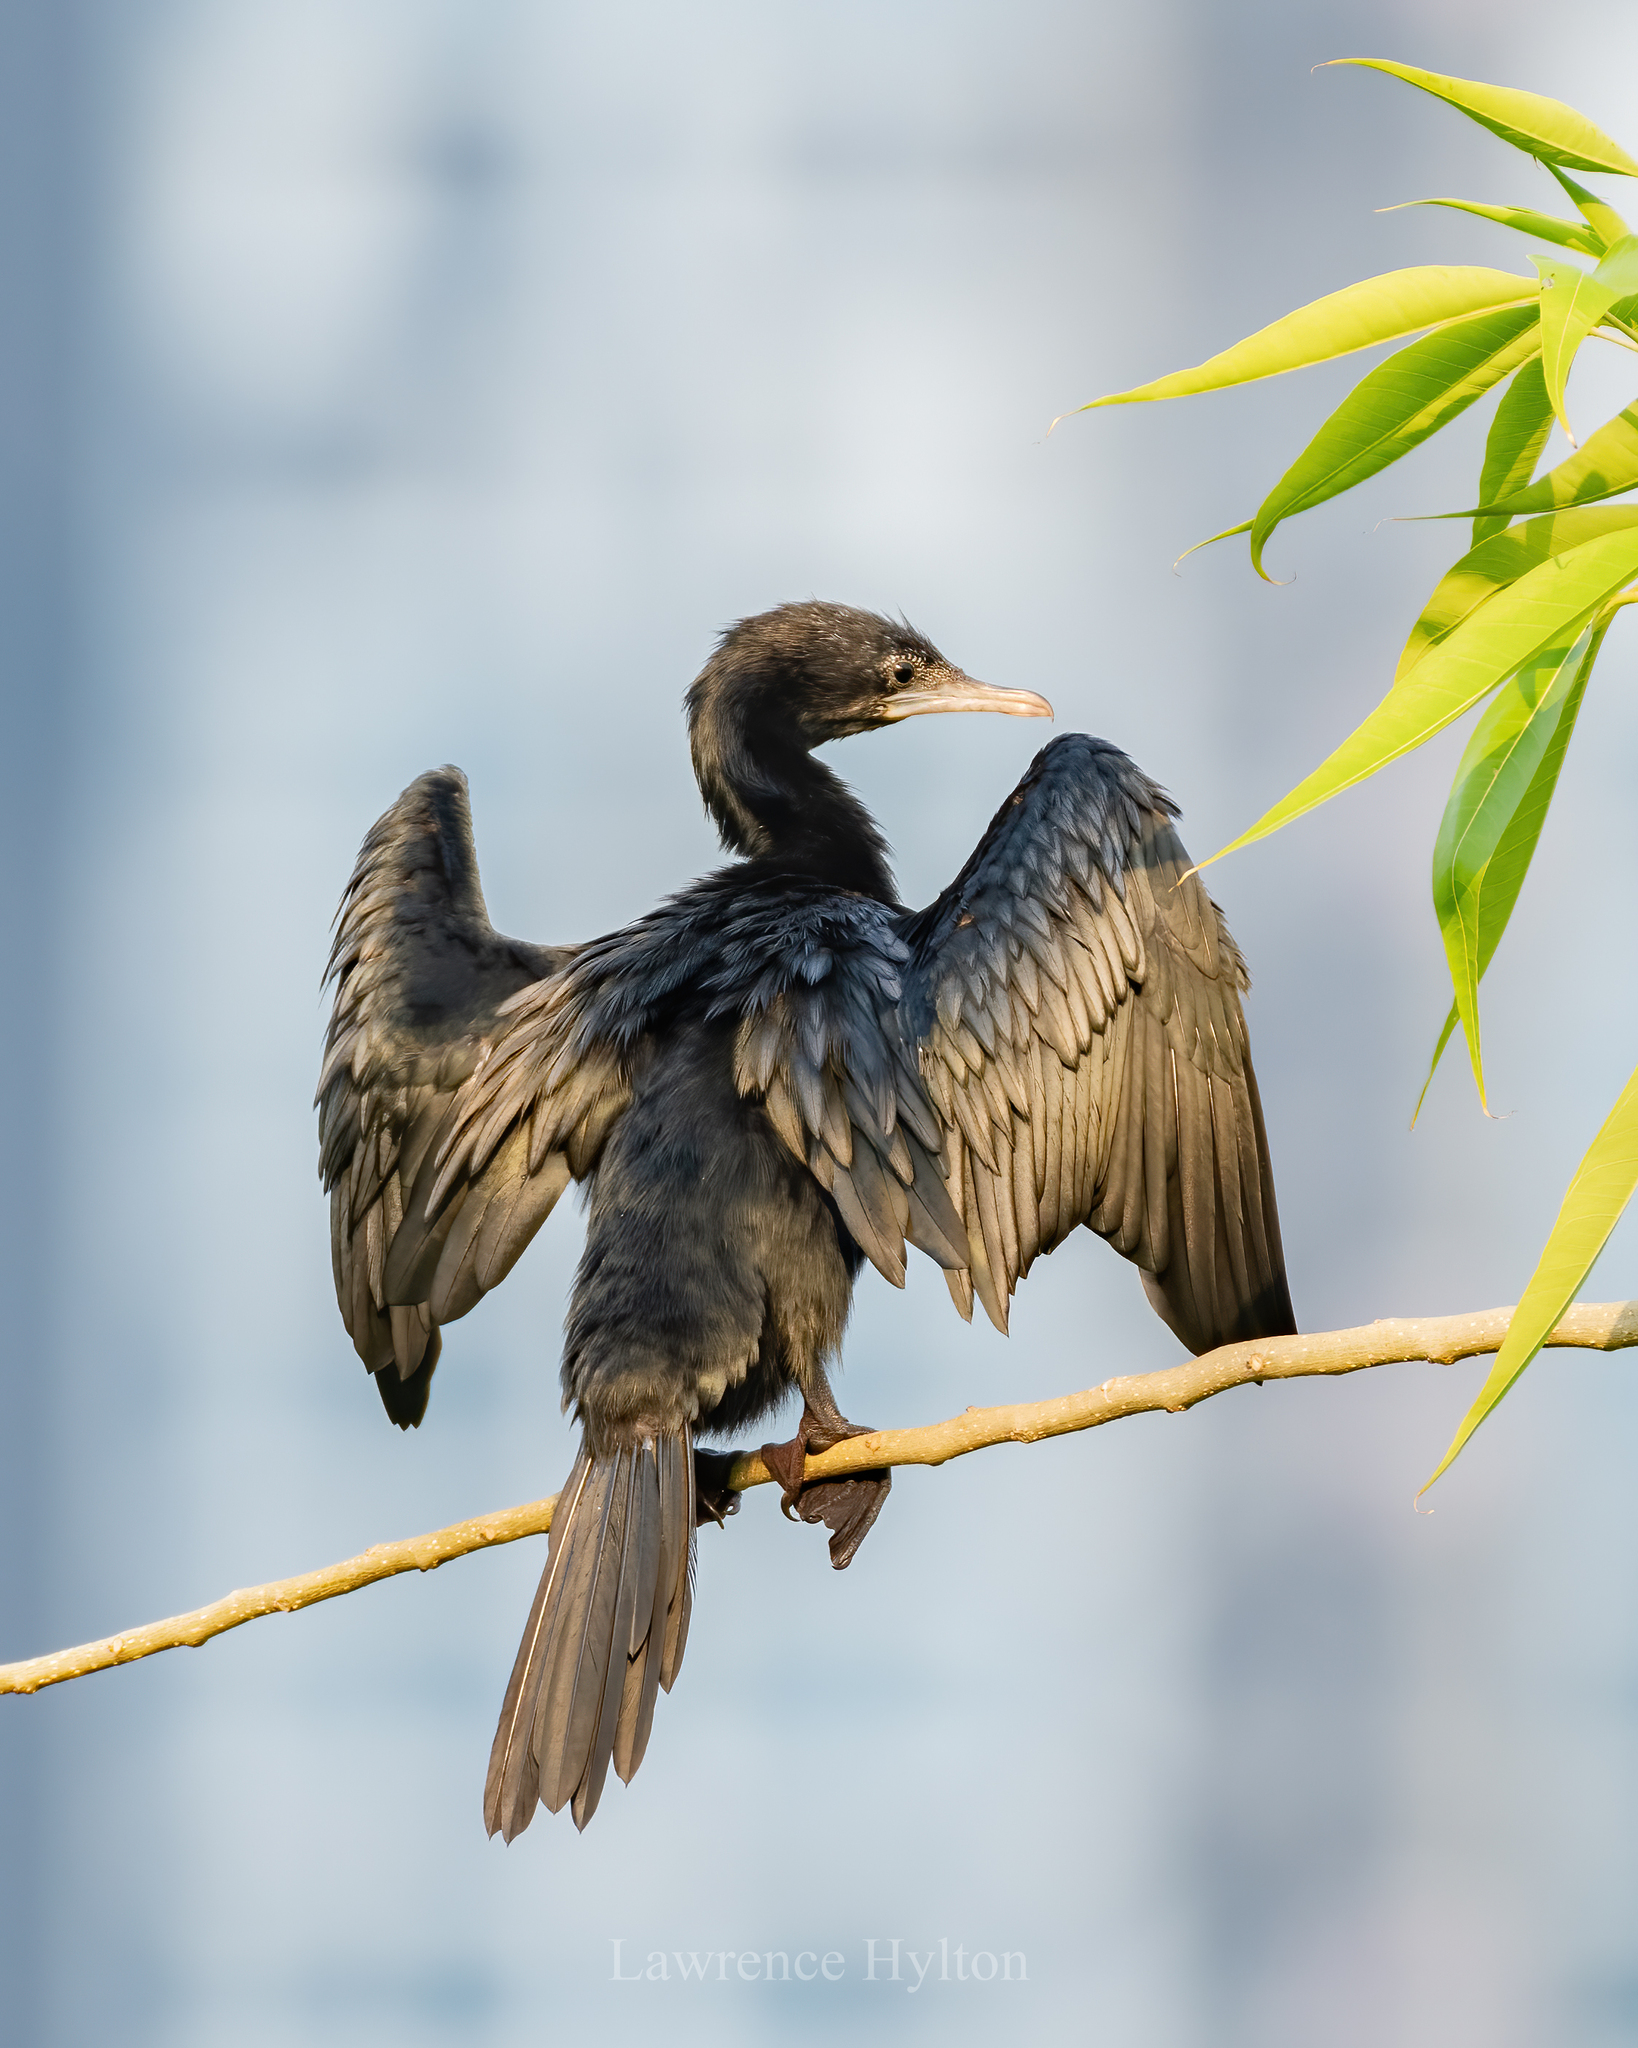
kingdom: Animalia
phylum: Chordata
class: Aves
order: Suliformes
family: Phalacrocoracidae
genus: Microcarbo
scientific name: Microcarbo niger
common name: Little cormorant
